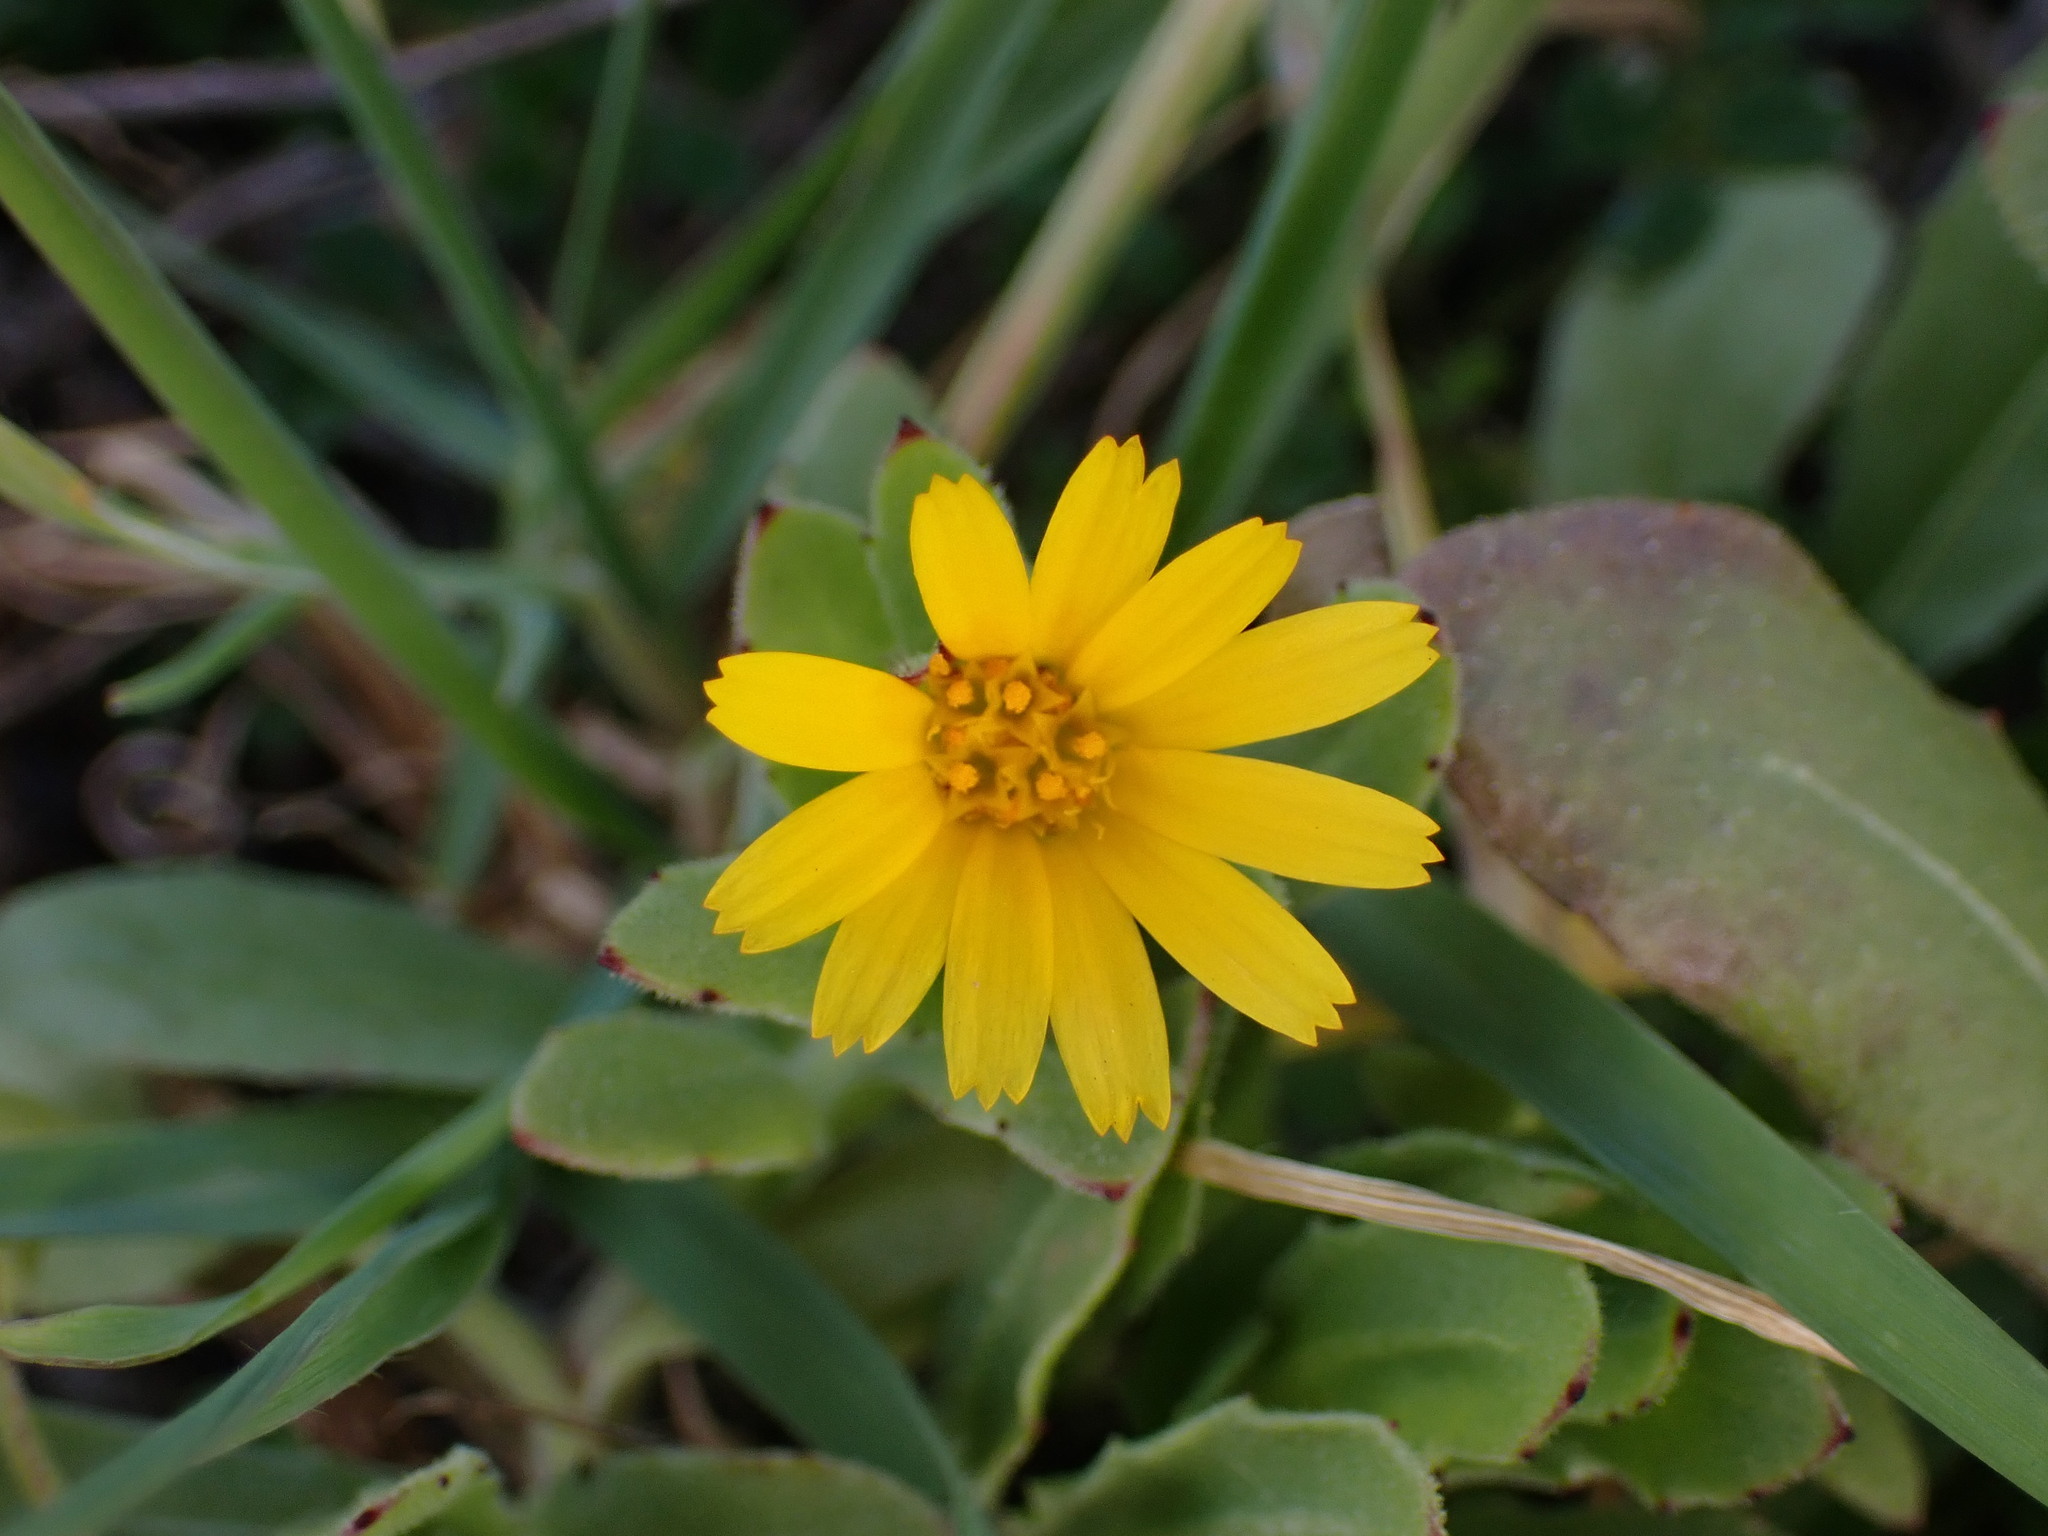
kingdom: Plantae
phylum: Tracheophyta
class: Magnoliopsida
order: Asterales
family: Asteraceae
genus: Calendula
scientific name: Calendula arvensis
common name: Field marigold
